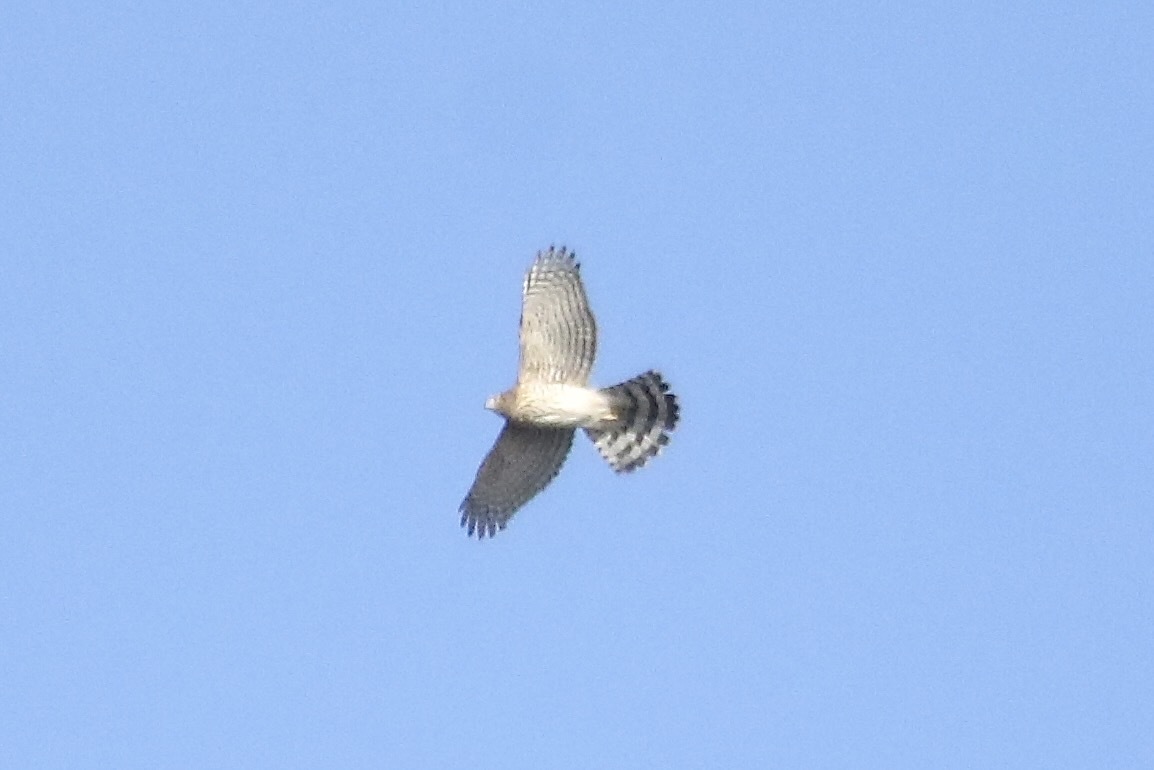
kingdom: Animalia
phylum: Chordata
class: Aves
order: Accipitriformes
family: Accipitridae
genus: Accipiter
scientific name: Accipiter cooperii
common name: Cooper's hawk
